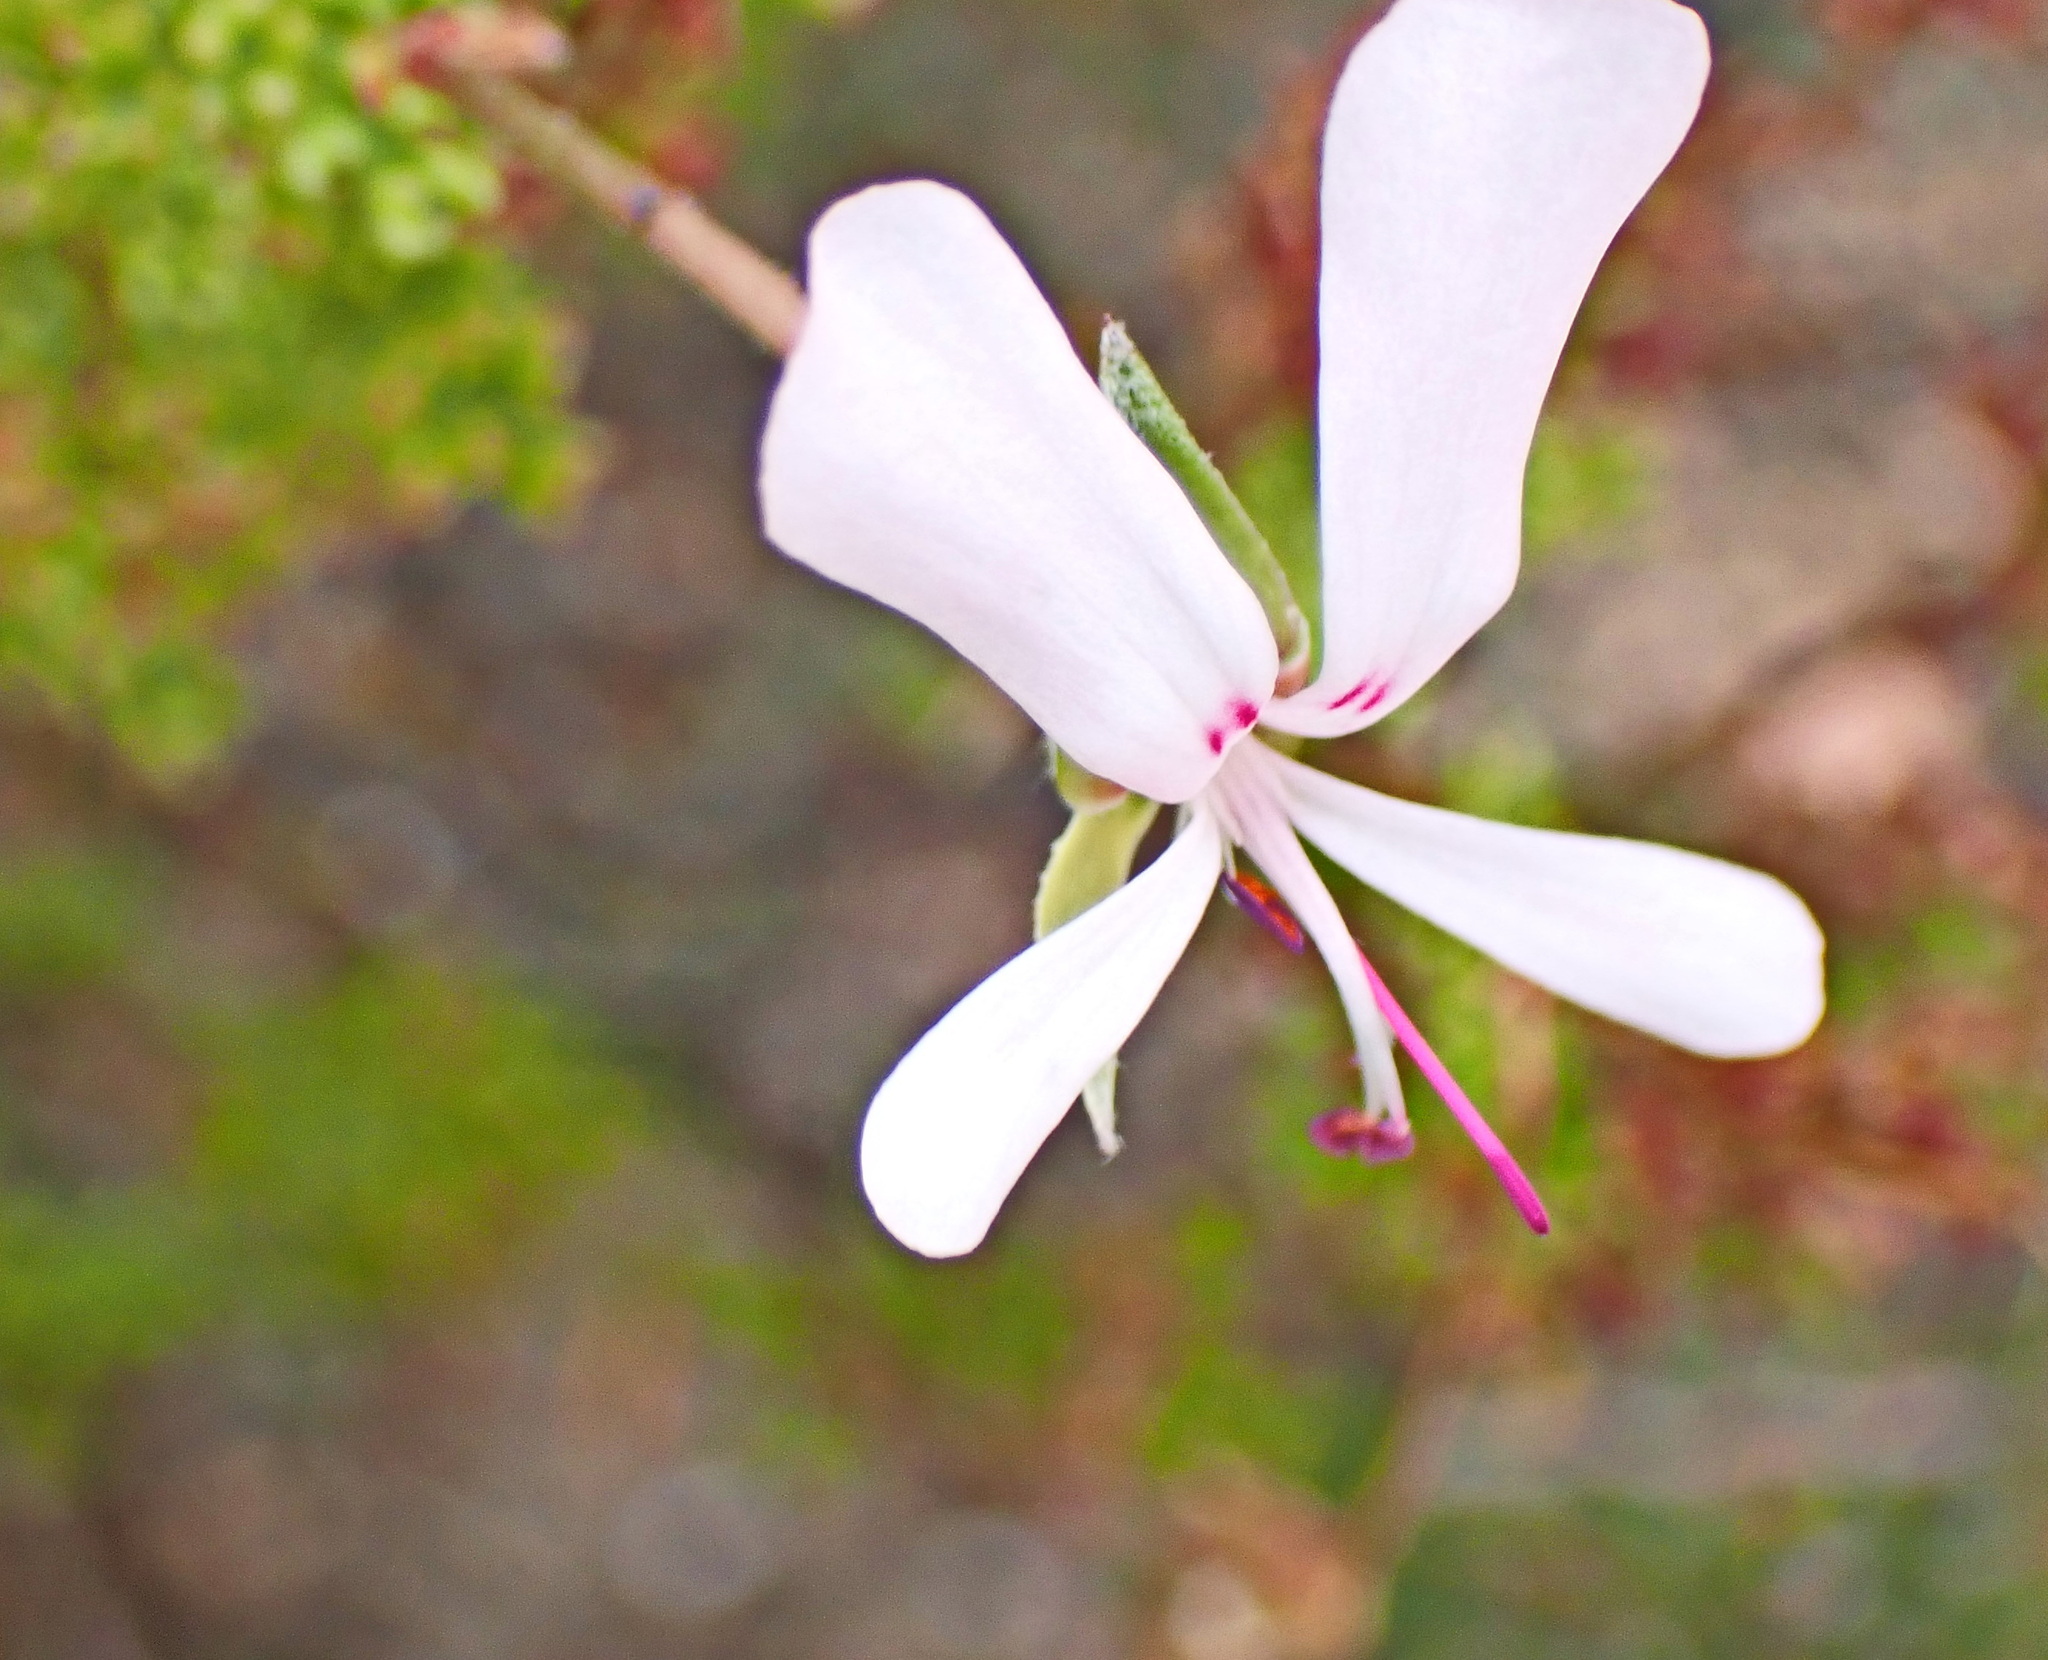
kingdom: Plantae
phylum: Tracheophyta
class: Magnoliopsida
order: Geraniales
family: Geraniaceae
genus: Pelargonium
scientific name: Pelargonium fruticosum
